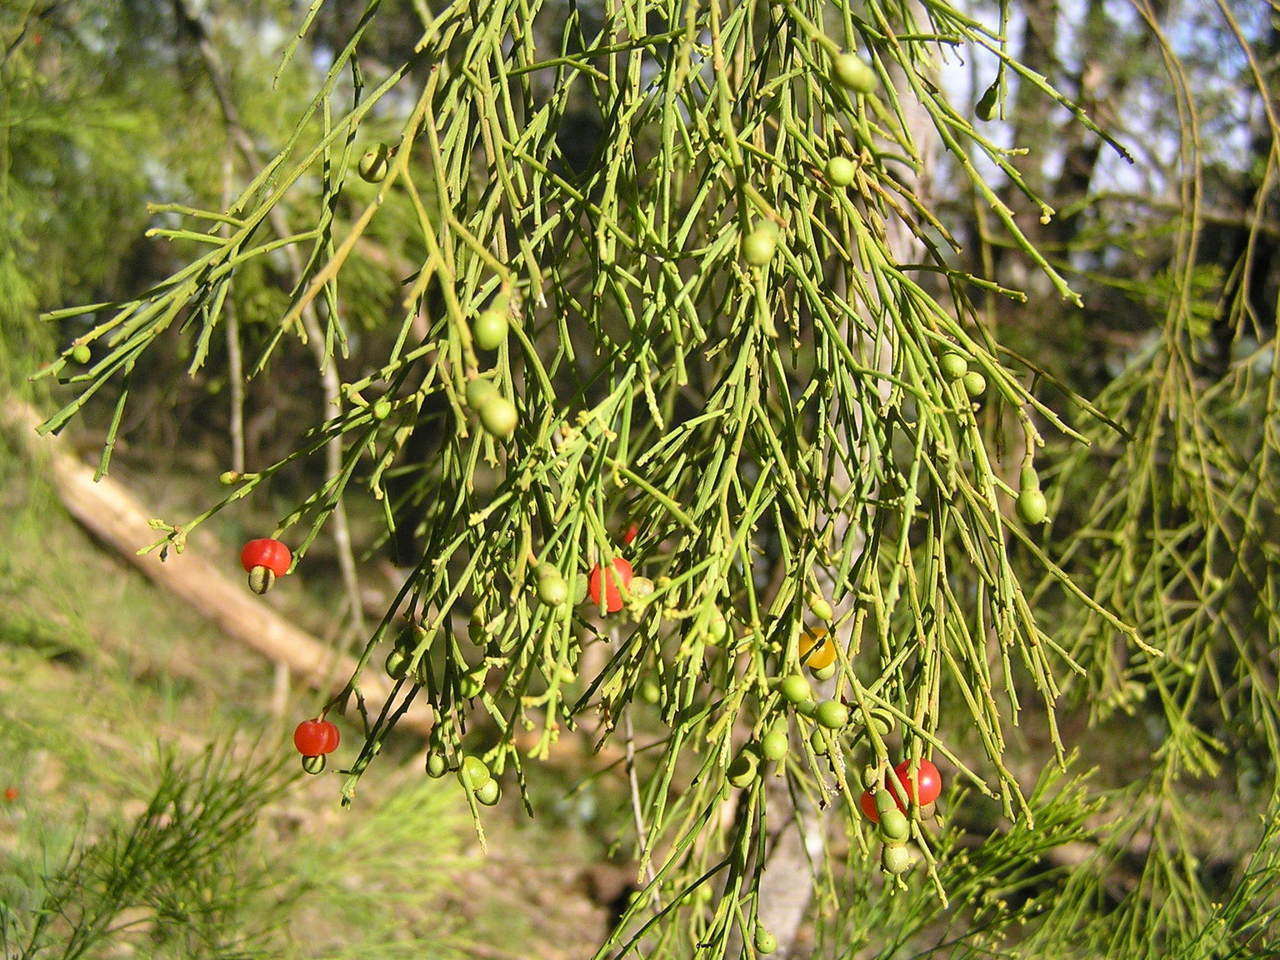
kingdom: Plantae
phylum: Tracheophyta
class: Magnoliopsida
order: Santalales
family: Santalaceae
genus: Exocarpos
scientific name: Exocarpos cupressiformis
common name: Cherry ballart
